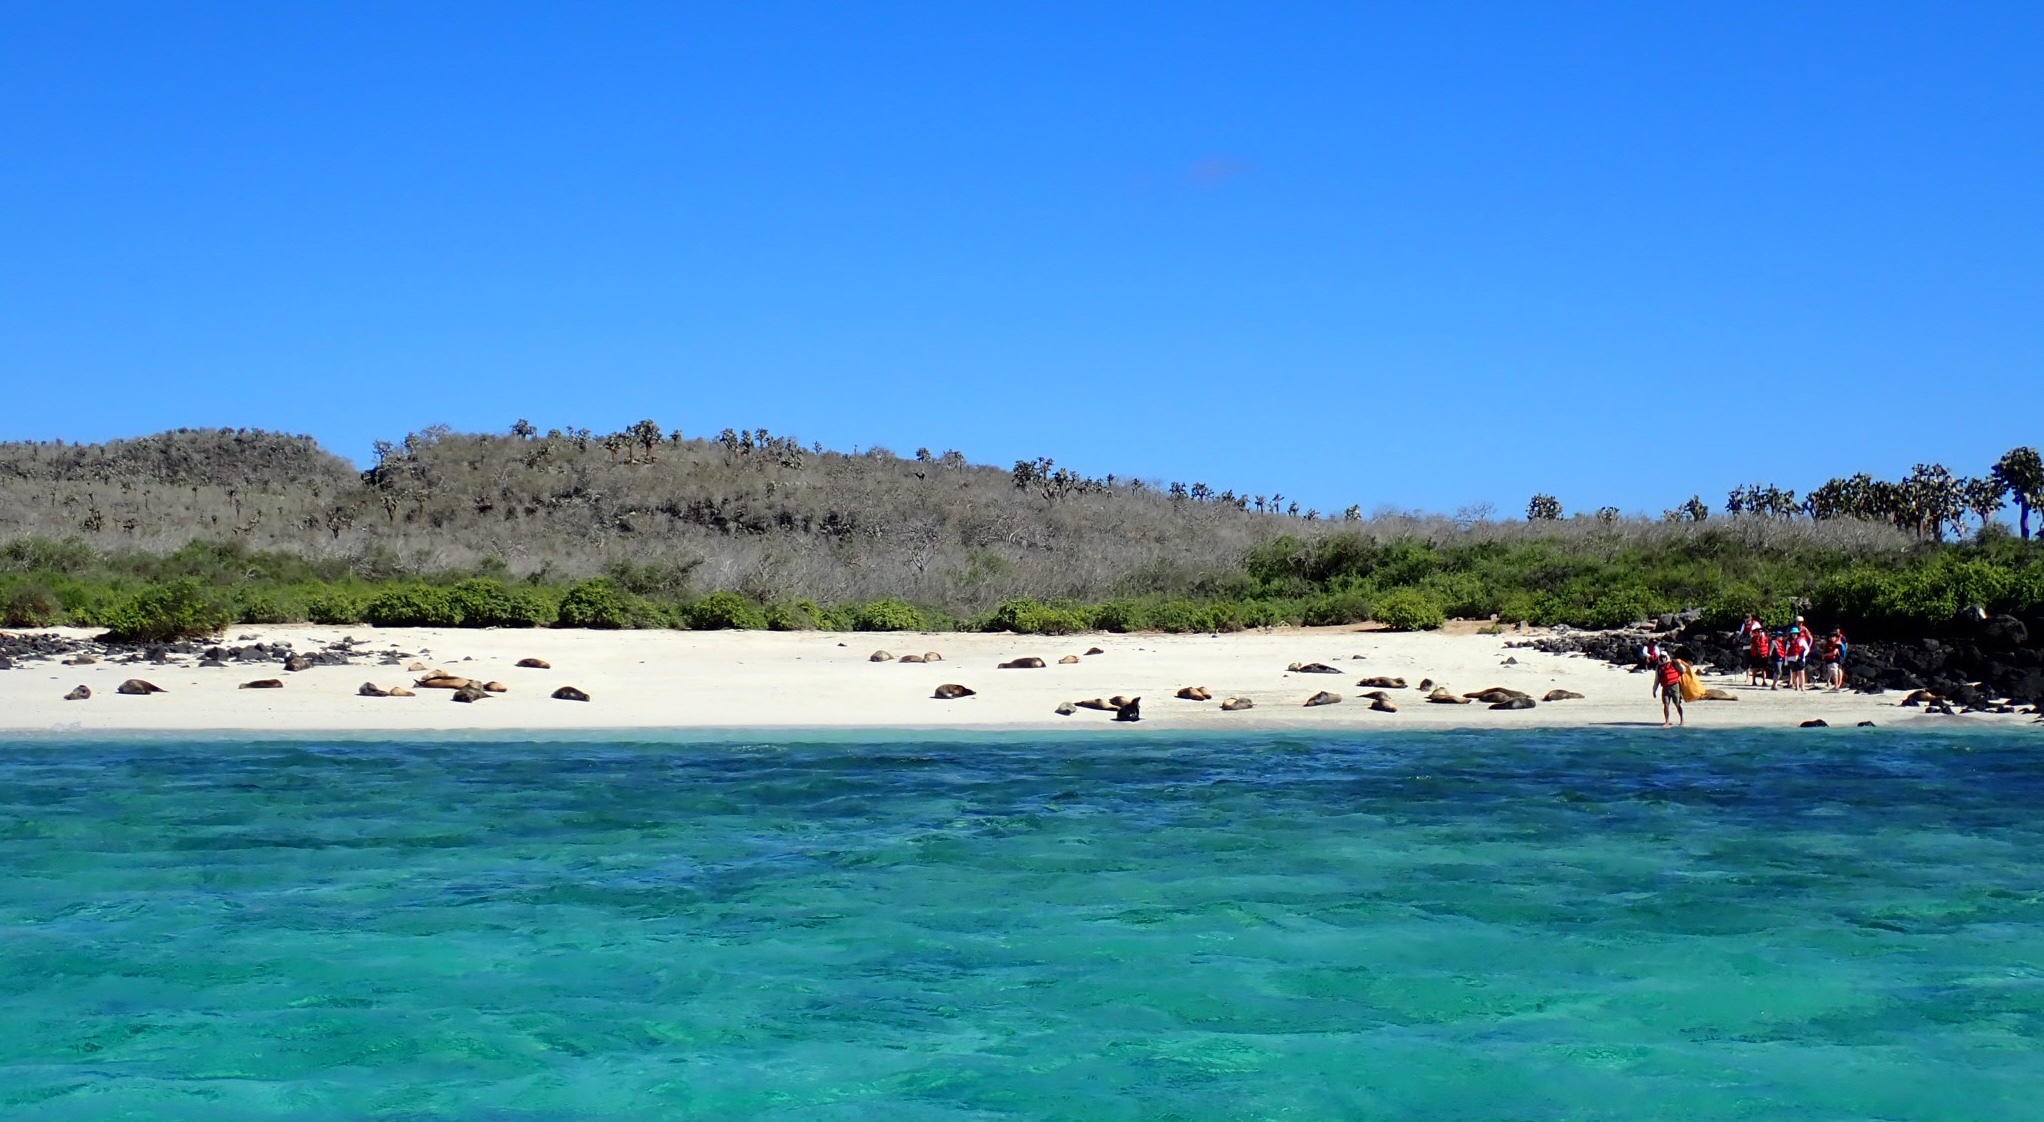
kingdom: Animalia
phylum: Chordata
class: Mammalia
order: Carnivora
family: Otariidae
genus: Zalophus
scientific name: Zalophus wollebaeki
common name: Galapagos sea lion
